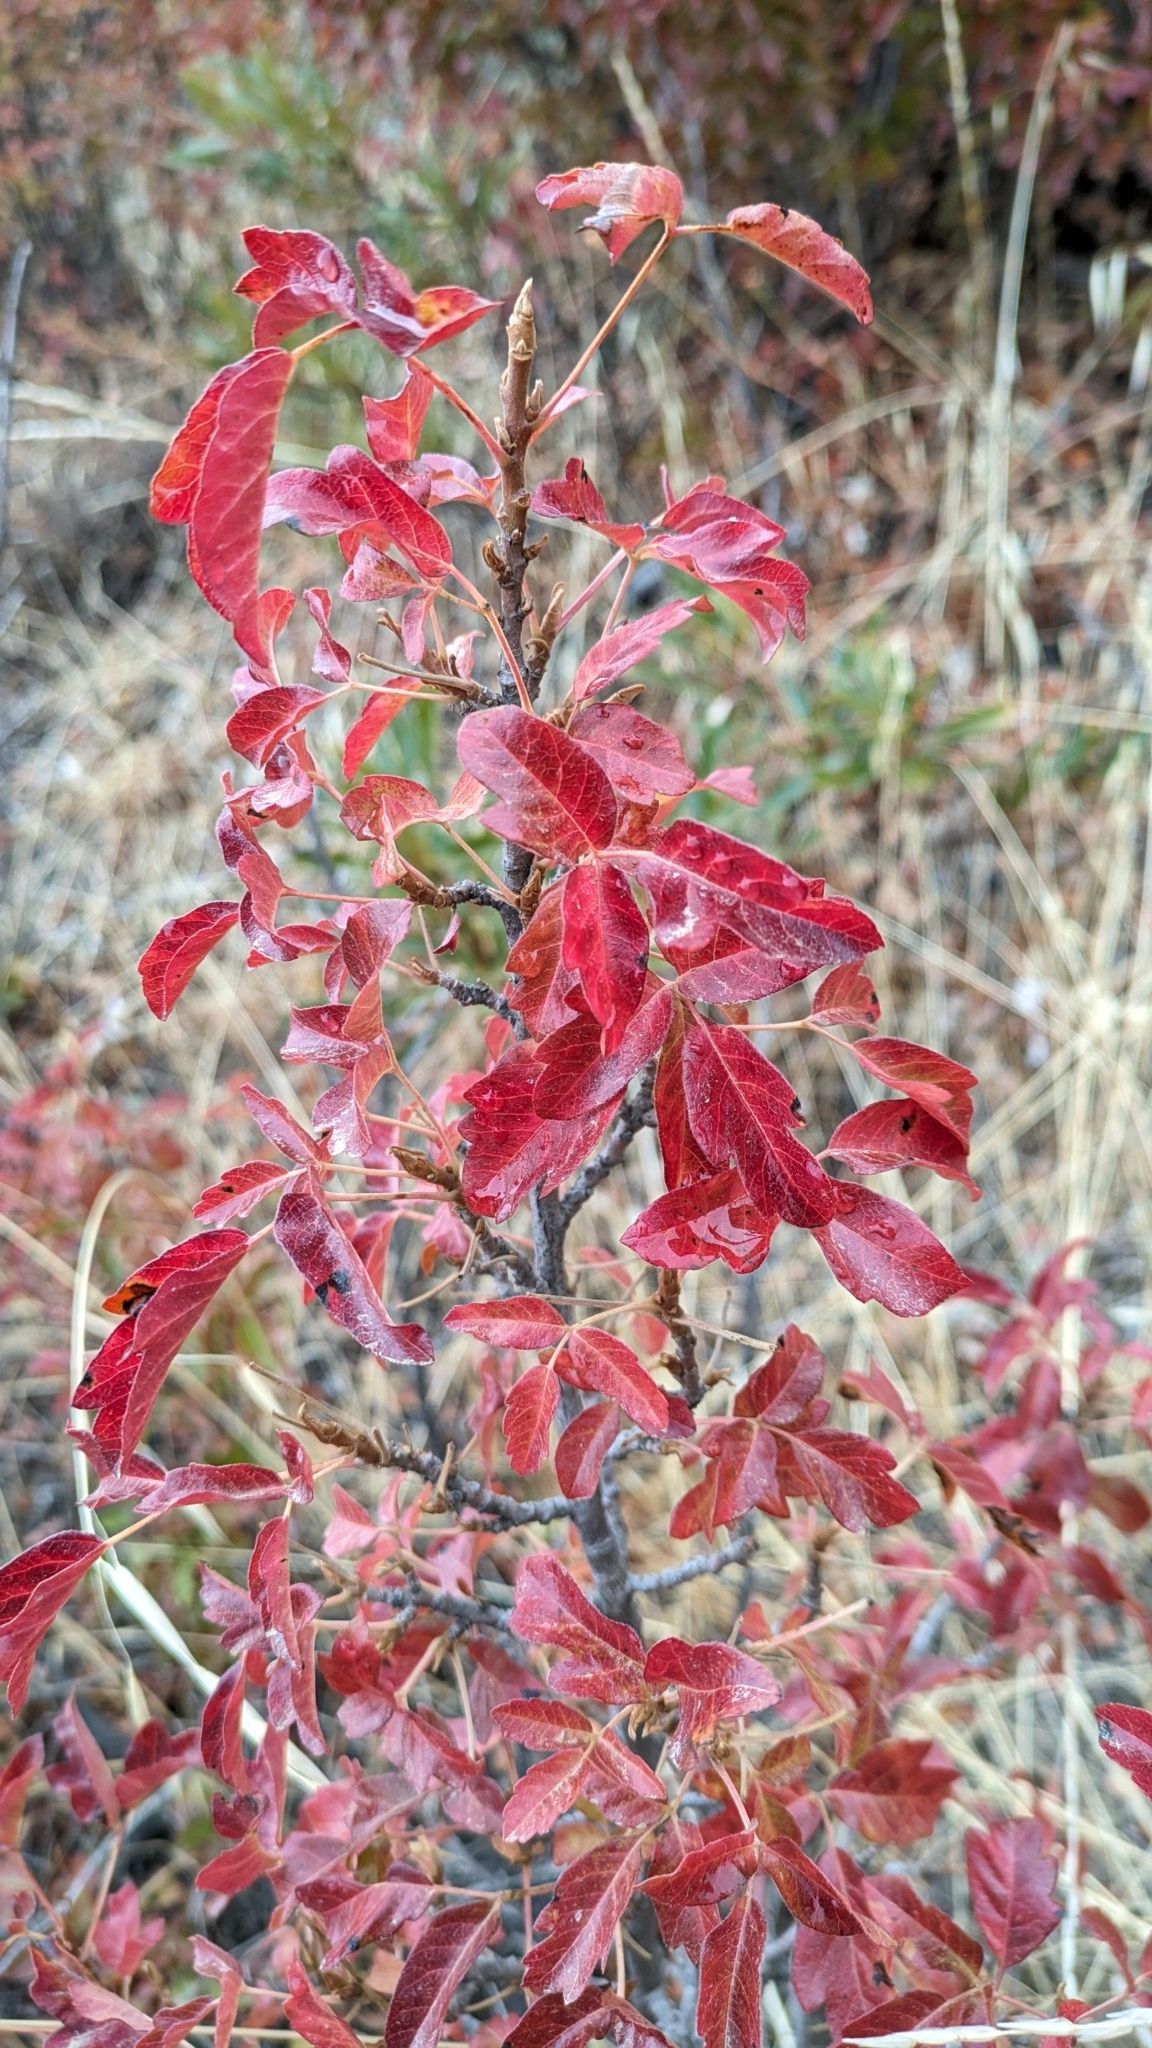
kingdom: Plantae
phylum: Tracheophyta
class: Magnoliopsida
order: Sapindales
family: Anacardiaceae
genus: Toxicodendron
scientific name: Toxicodendron diversilobum
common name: Pacific poison-oak
